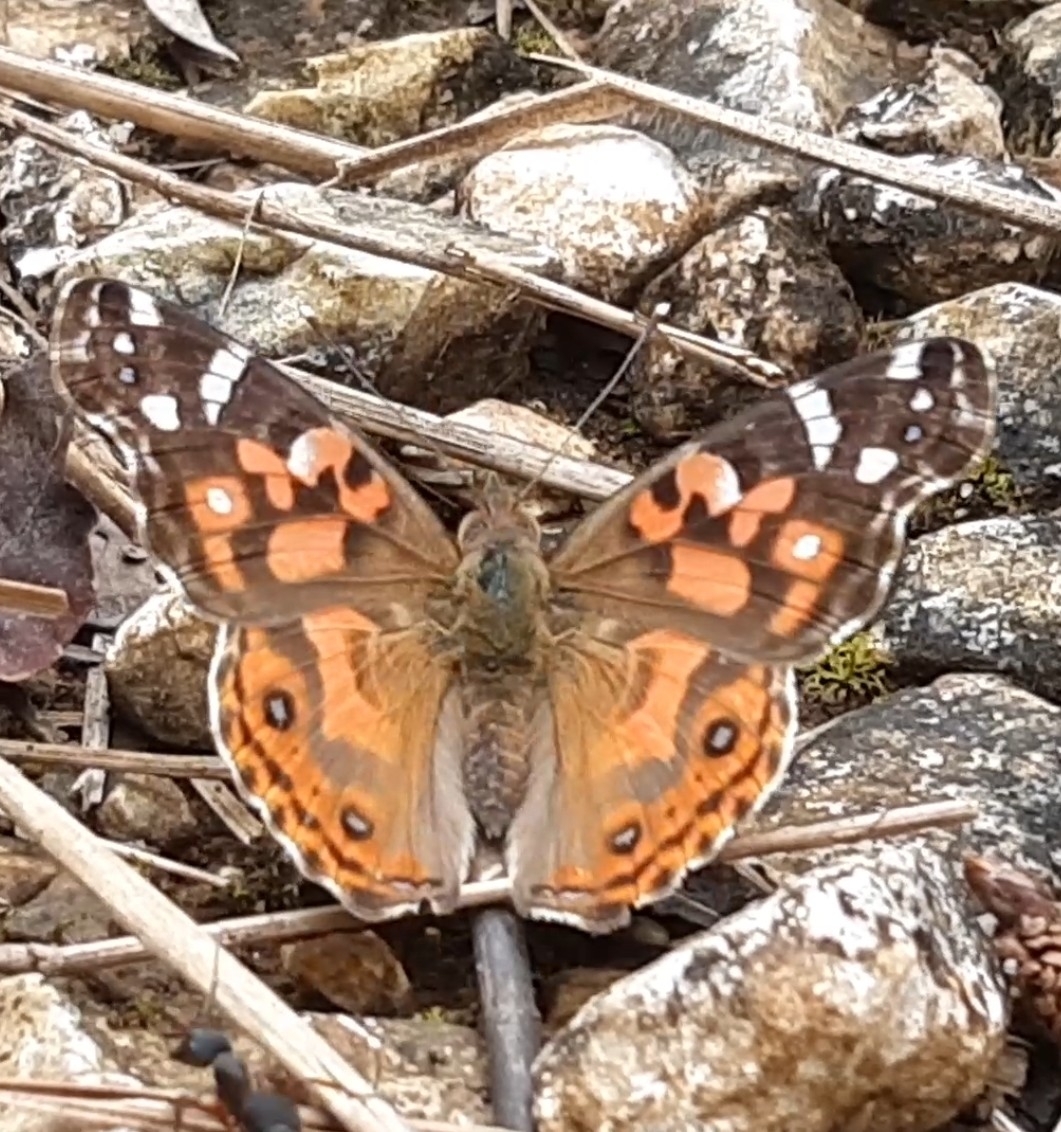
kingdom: Animalia
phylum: Arthropoda
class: Insecta
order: Lepidoptera
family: Nymphalidae
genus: Vanessa
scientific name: Vanessa braziliensis
